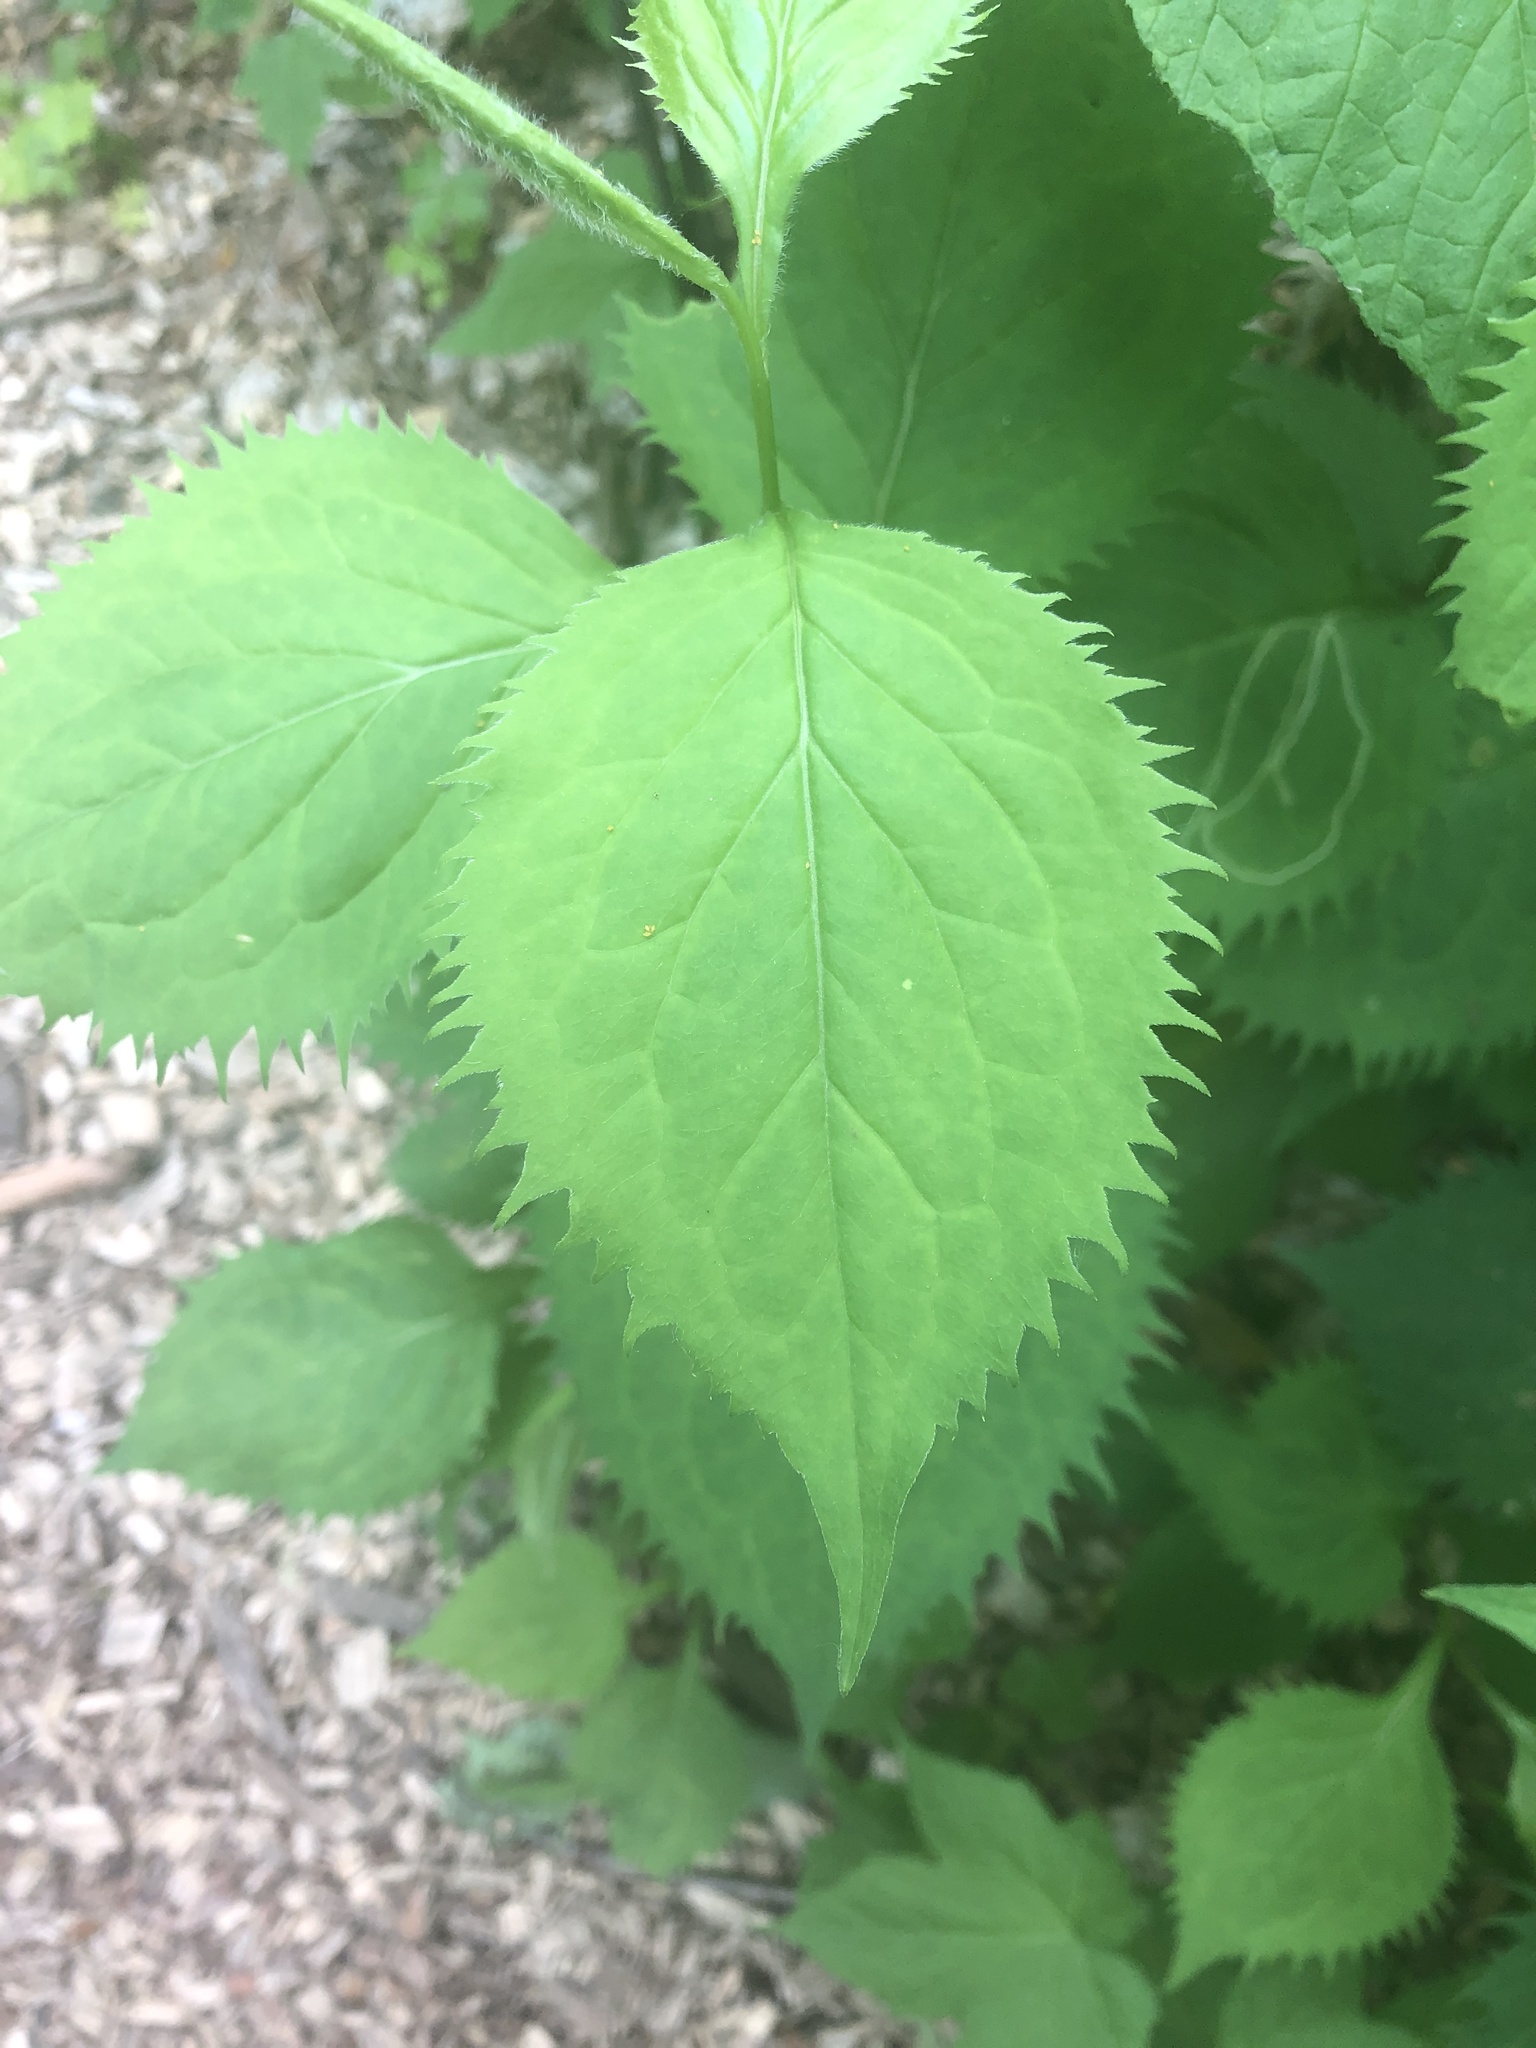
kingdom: Plantae
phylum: Tracheophyta
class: Magnoliopsida
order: Asterales
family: Asteraceae
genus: Solidago
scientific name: Solidago flexicaulis
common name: Zig-zag goldenrod
